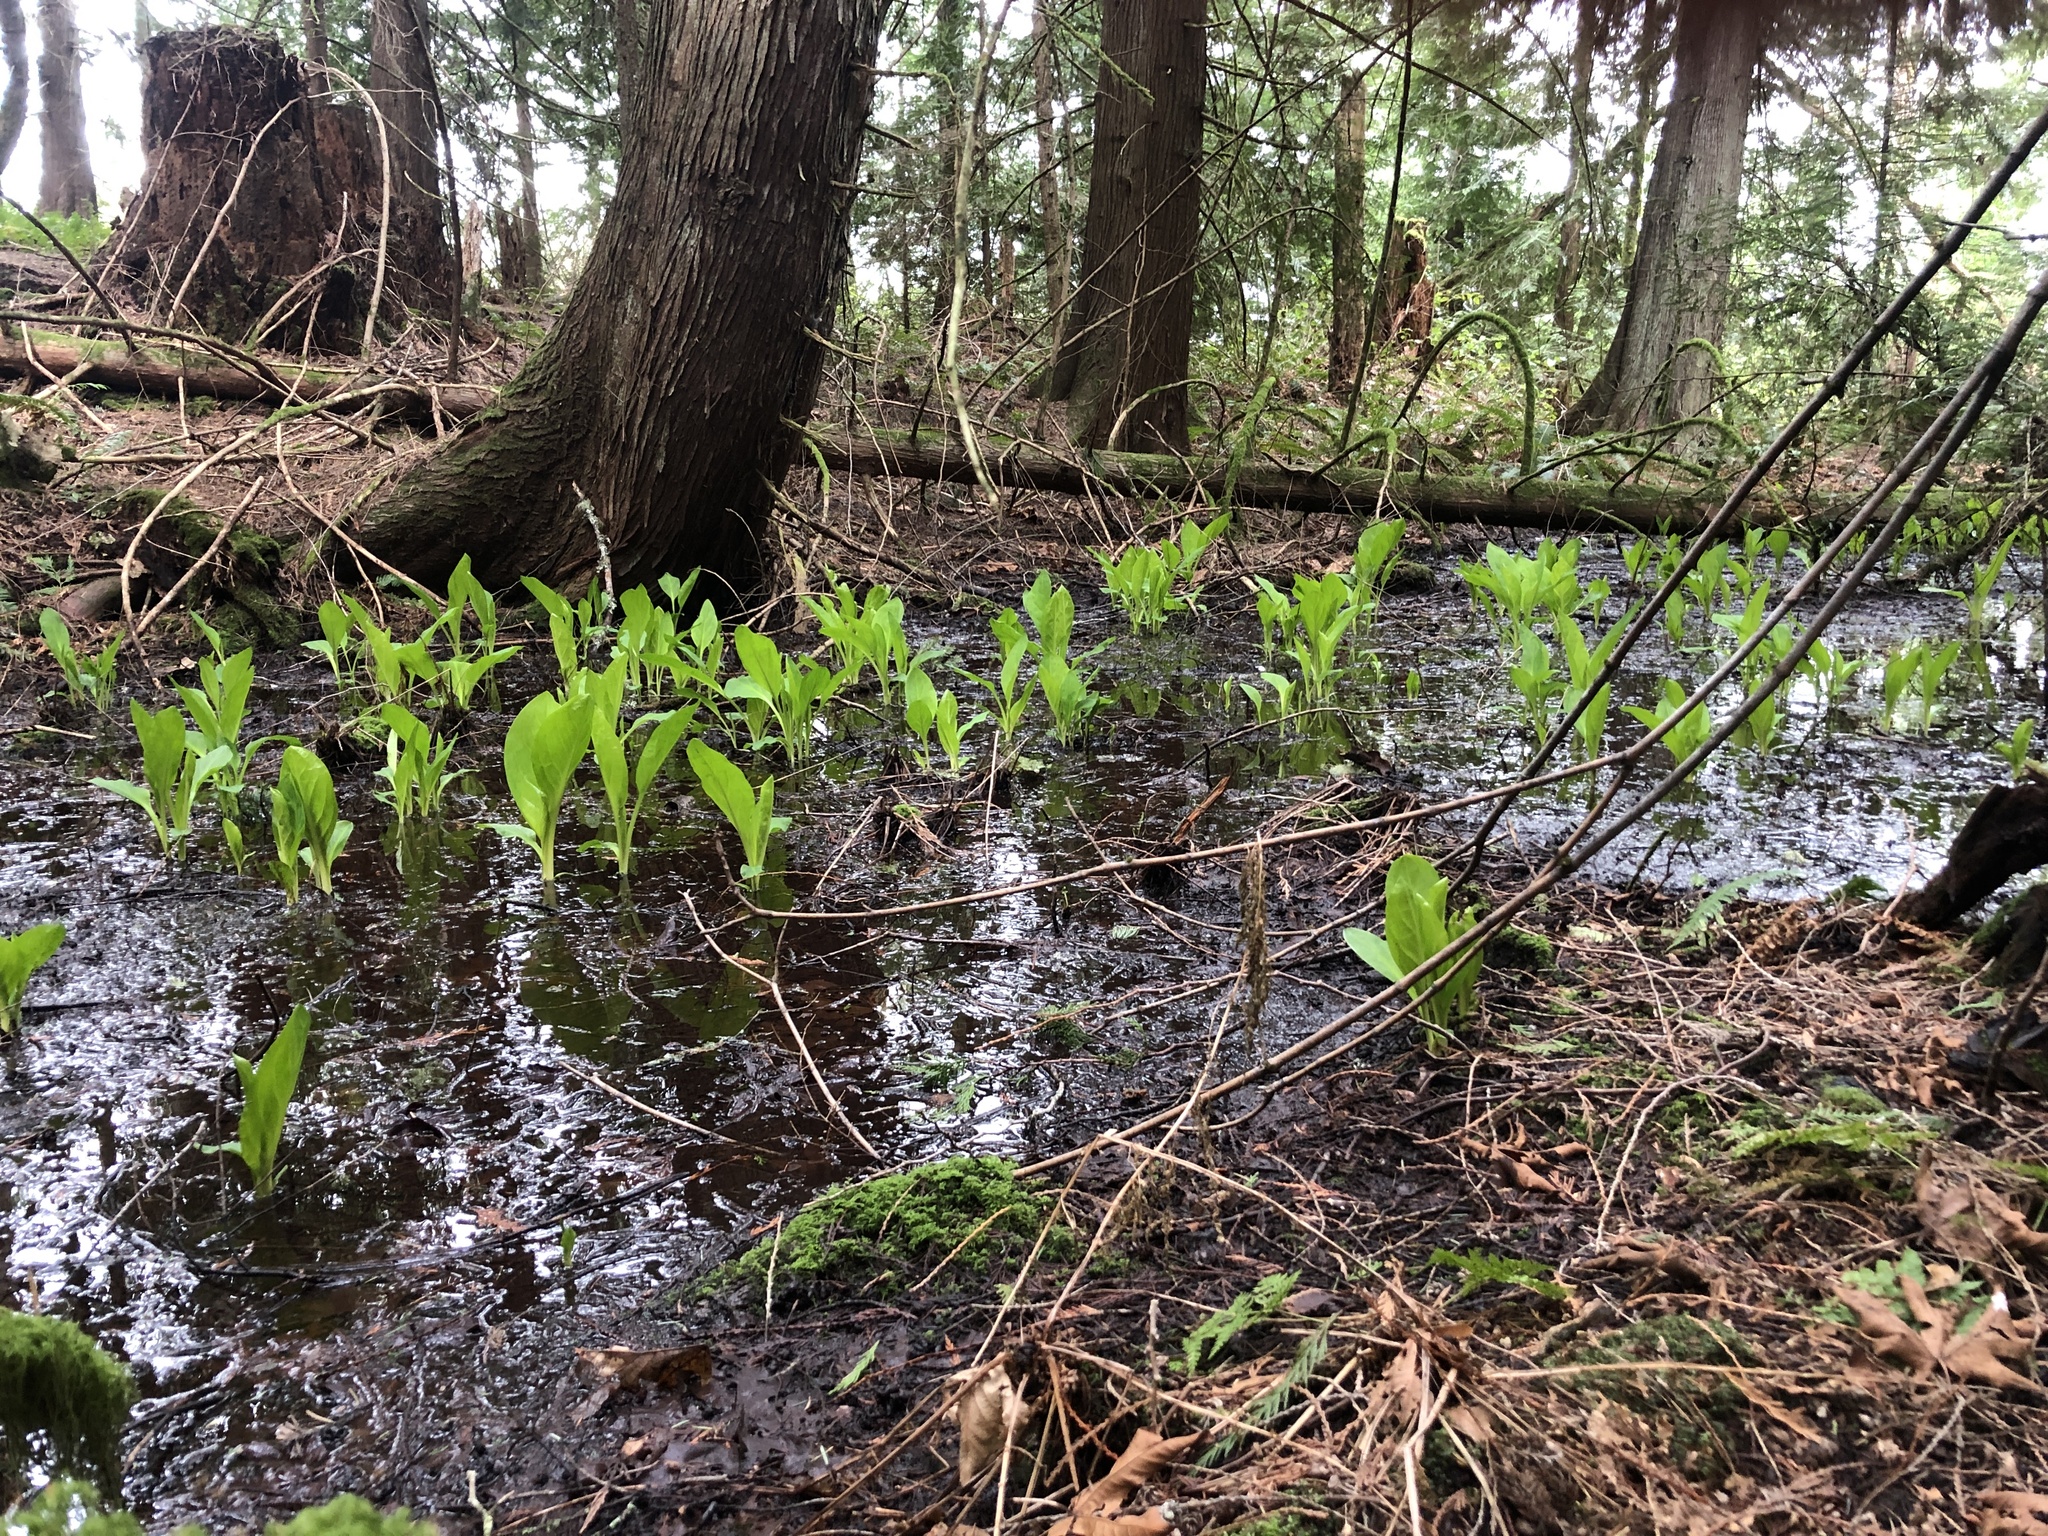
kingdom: Plantae
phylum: Tracheophyta
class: Liliopsida
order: Alismatales
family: Araceae
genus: Lysichiton
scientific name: Lysichiton americanus
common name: American skunk cabbage
